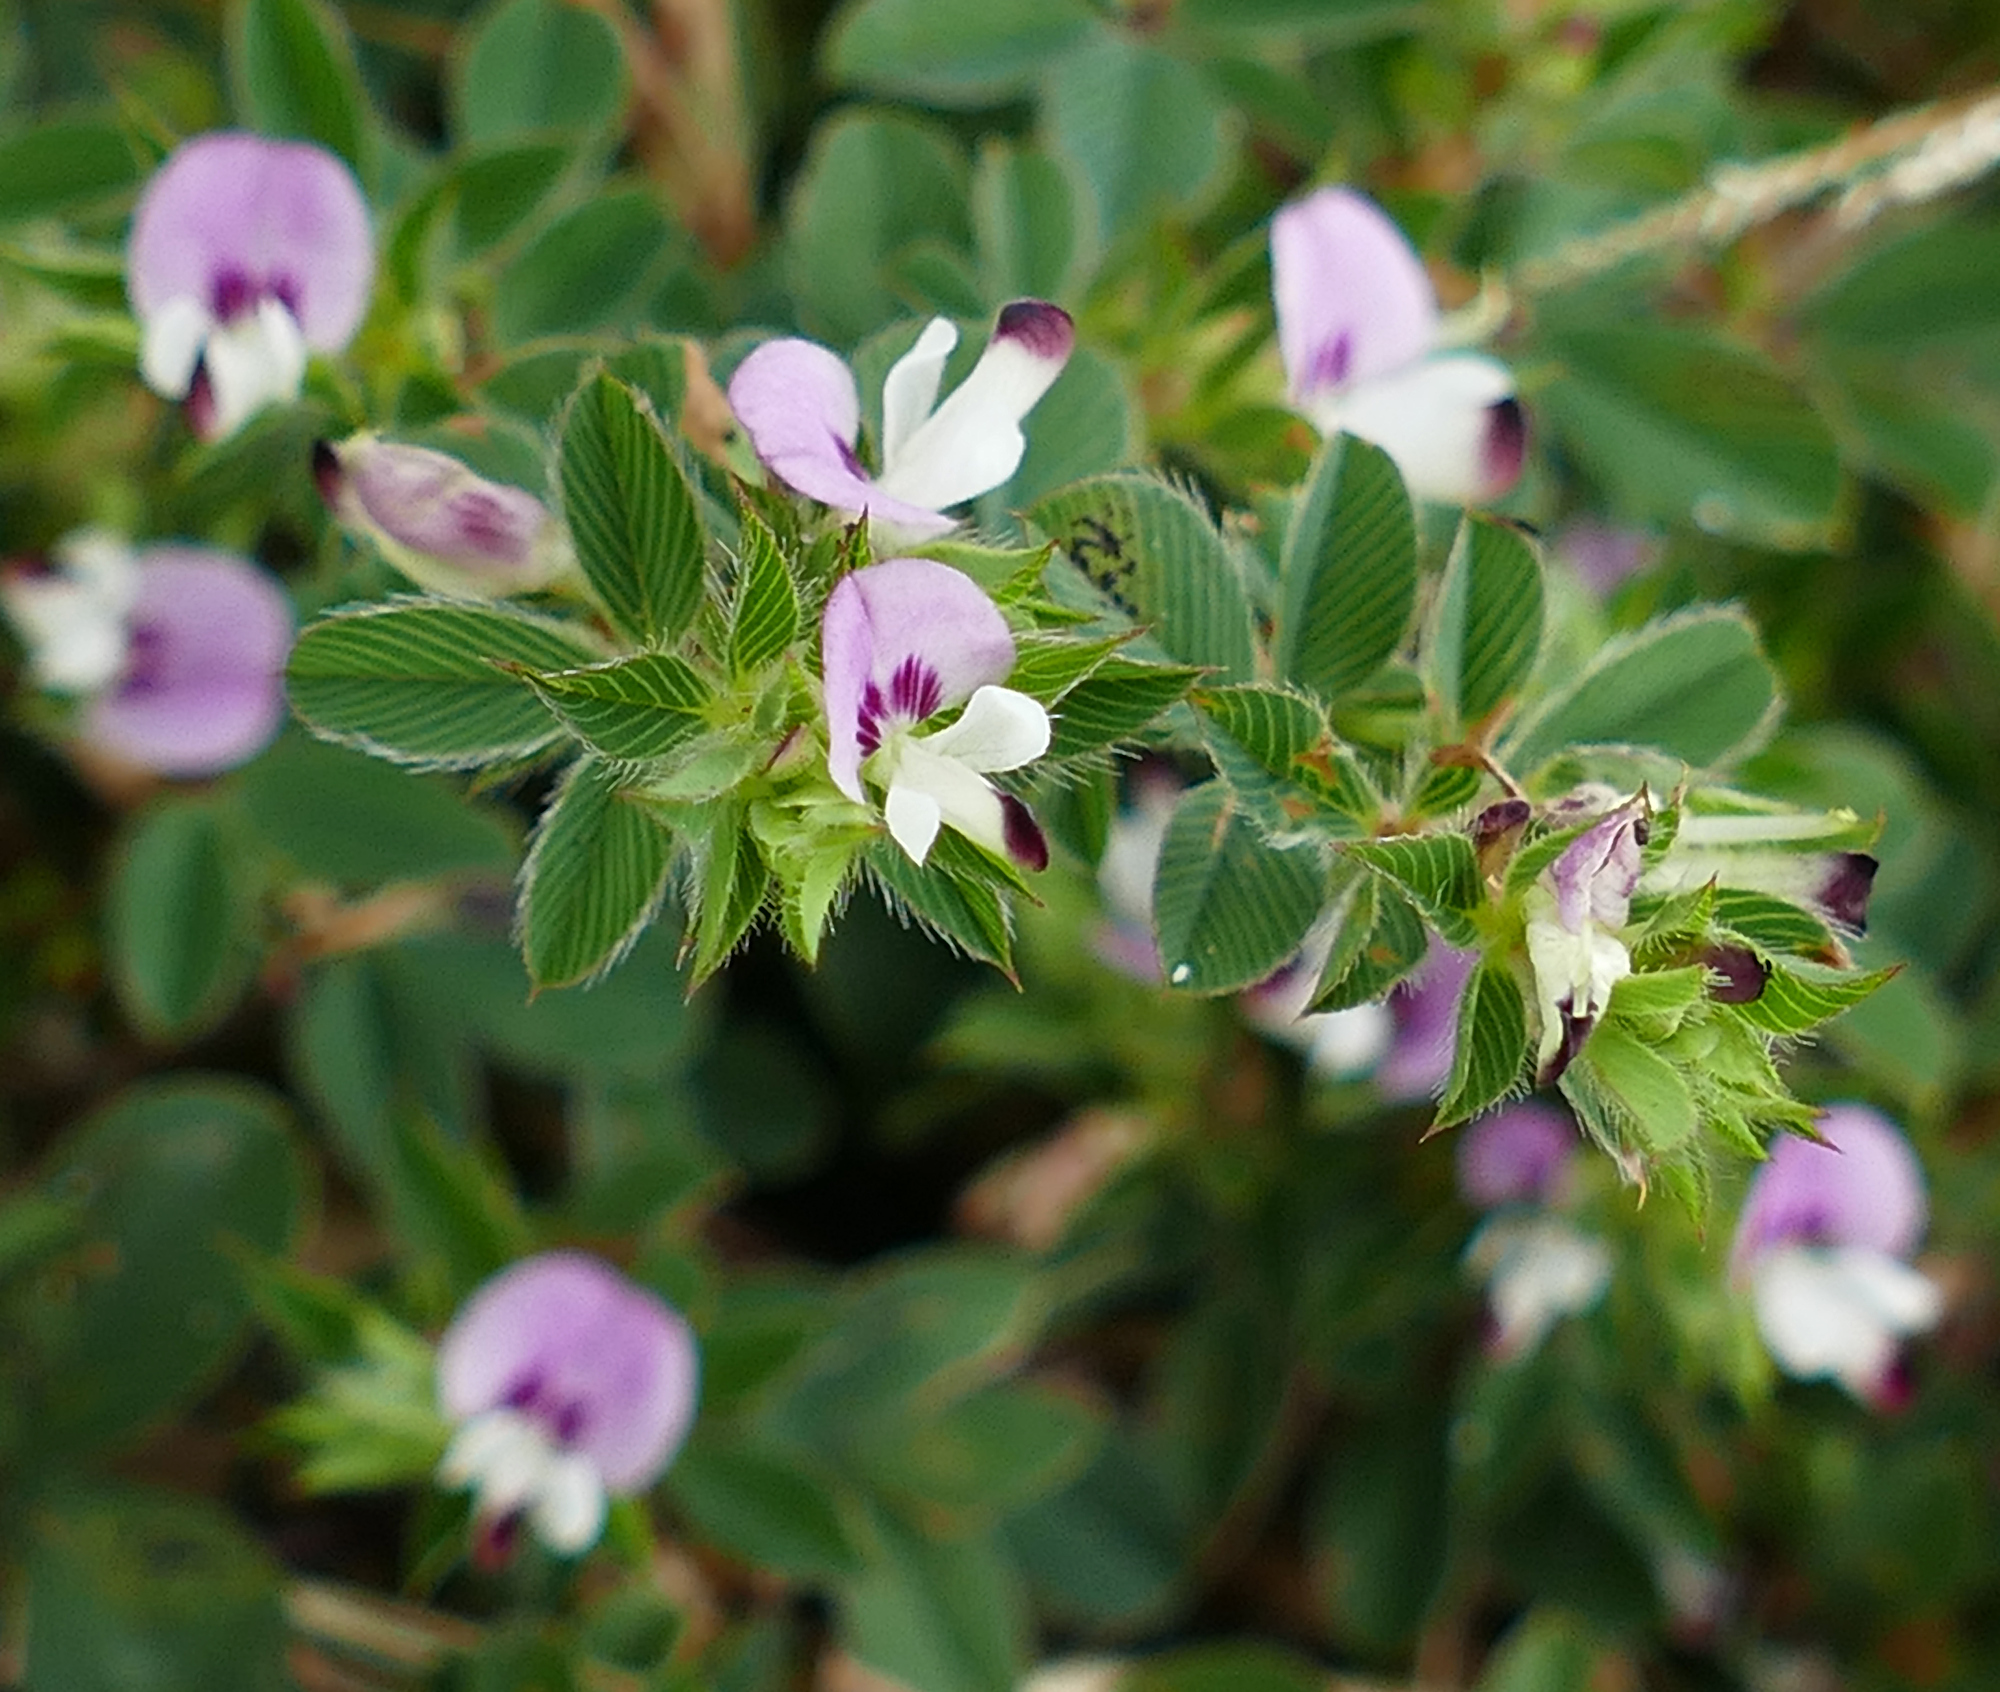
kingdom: Plantae
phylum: Tracheophyta
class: Magnoliopsida
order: Fabales
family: Fabaceae
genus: Kummerowia
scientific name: Kummerowia stipulacea
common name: Korean clover
